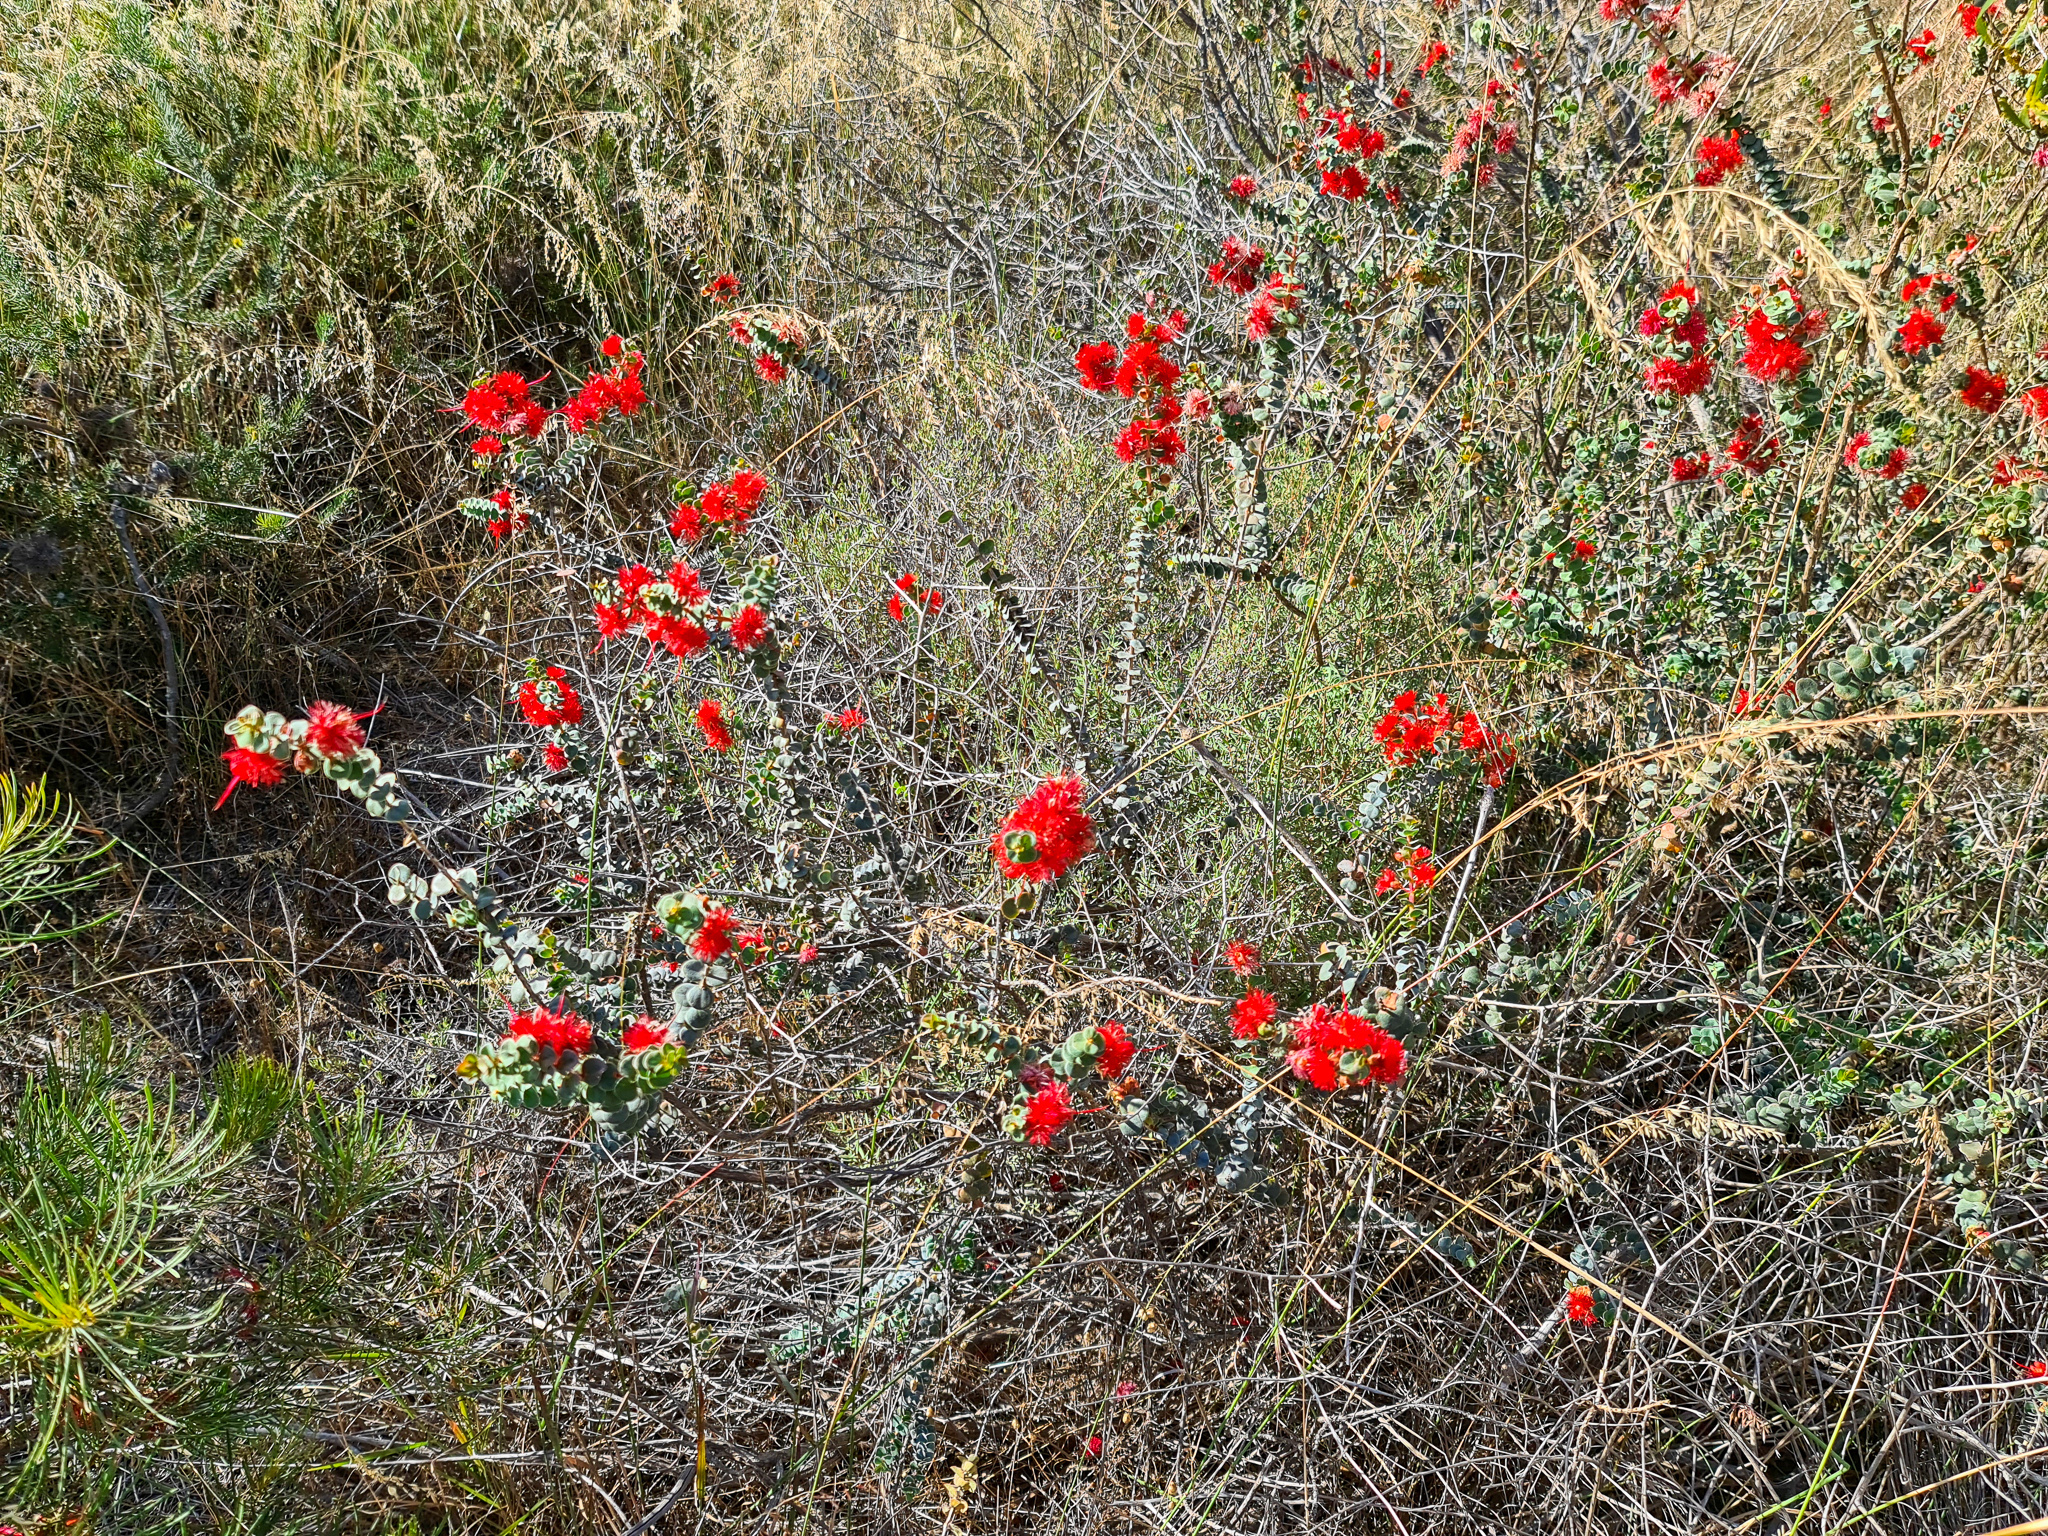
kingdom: Plantae
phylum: Tracheophyta
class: Magnoliopsida
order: Myrtales
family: Myrtaceae
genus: Verticordia
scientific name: Verticordia grandis
